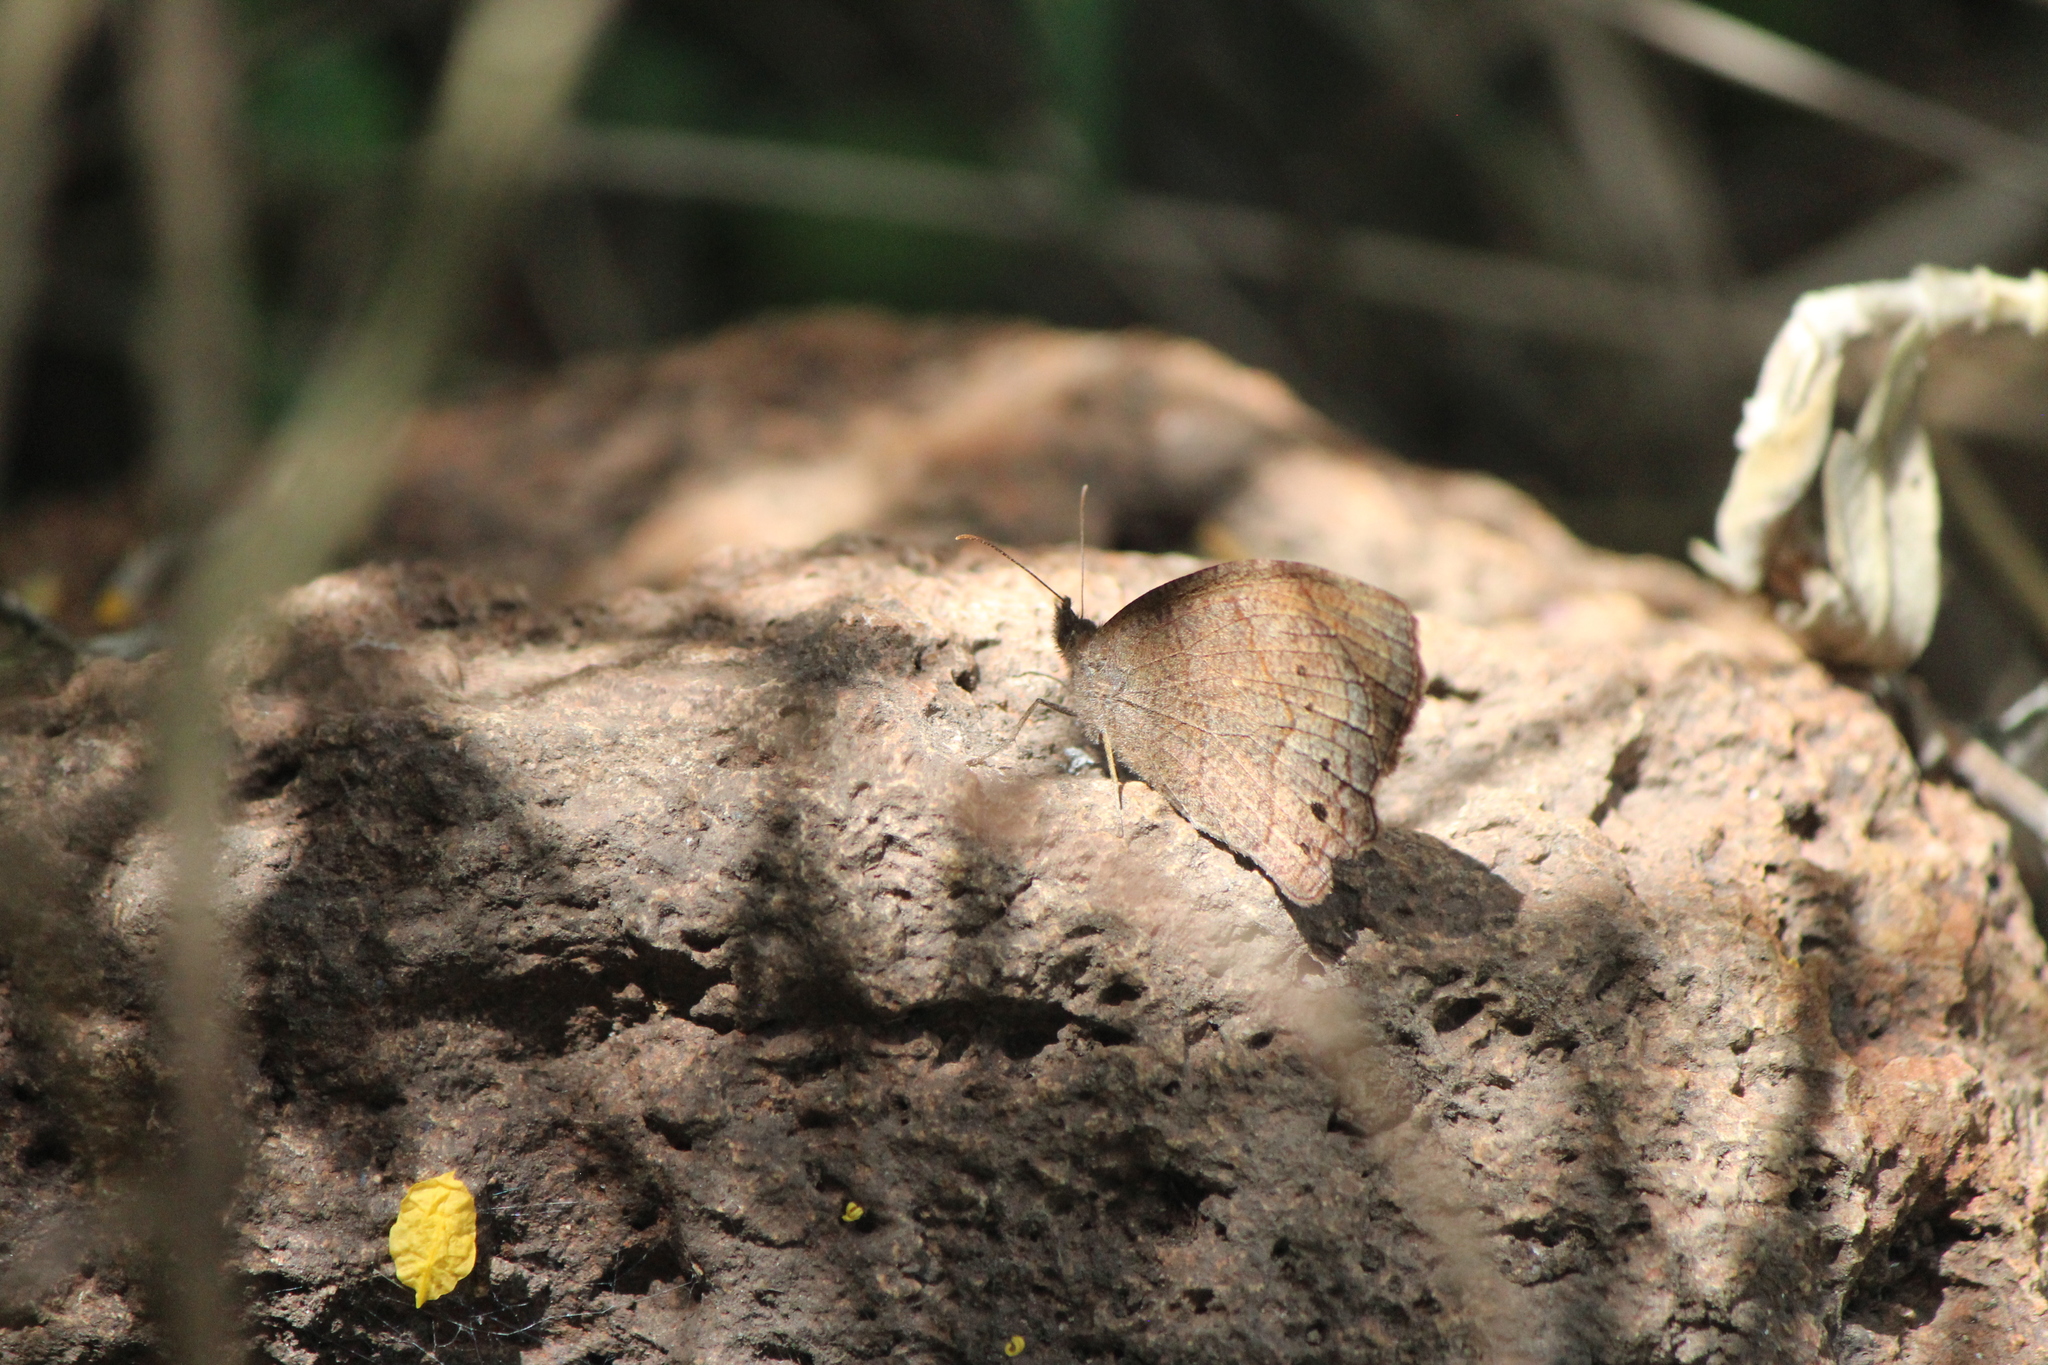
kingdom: Animalia
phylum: Arthropoda
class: Insecta
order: Lepidoptera
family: Nymphalidae
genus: Pindis
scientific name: Pindis squamistriga
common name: Variable satyr
